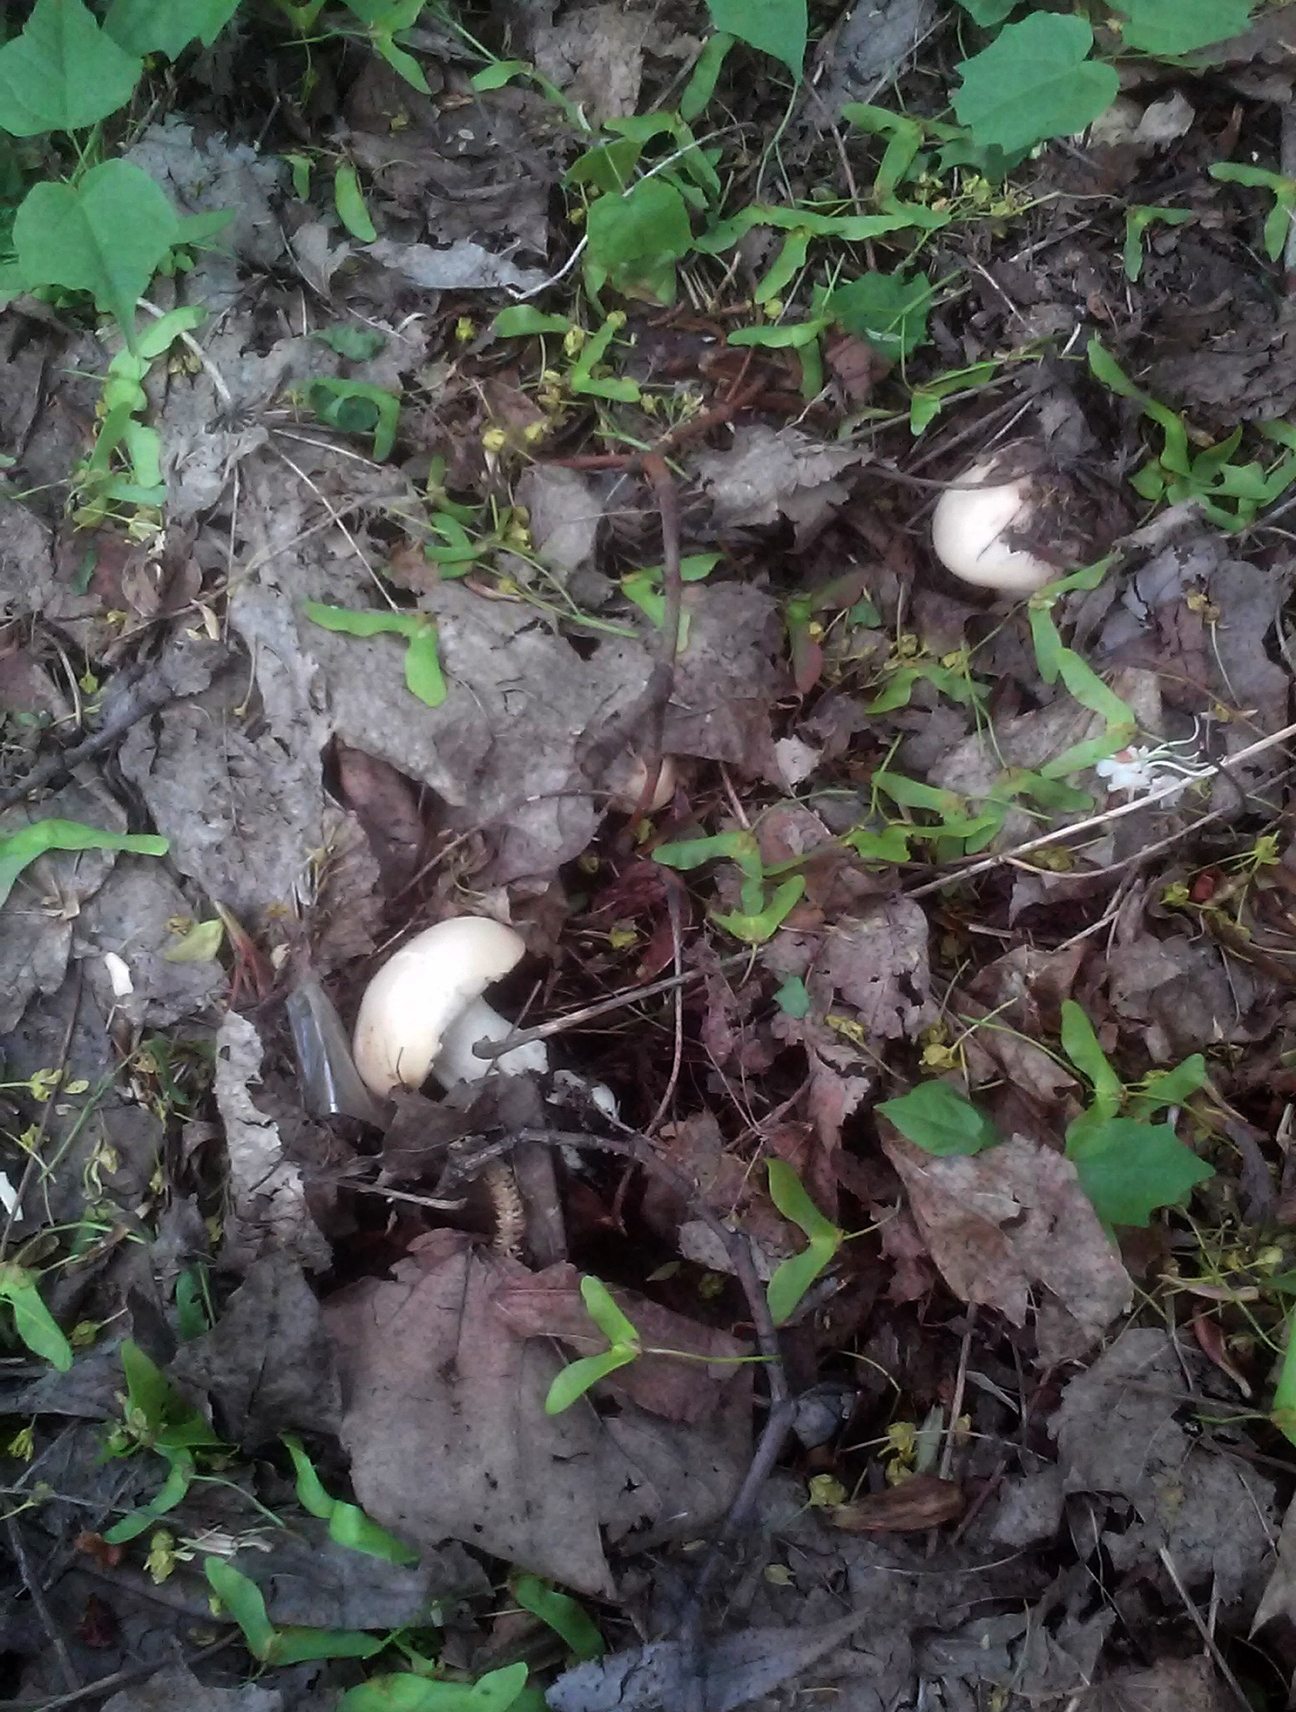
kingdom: Fungi
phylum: Basidiomycota
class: Agaricomycetes
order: Agaricales
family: Lyophyllaceae
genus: Calocybe
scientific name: Calocybe gambosa
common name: St. george's mushroom
